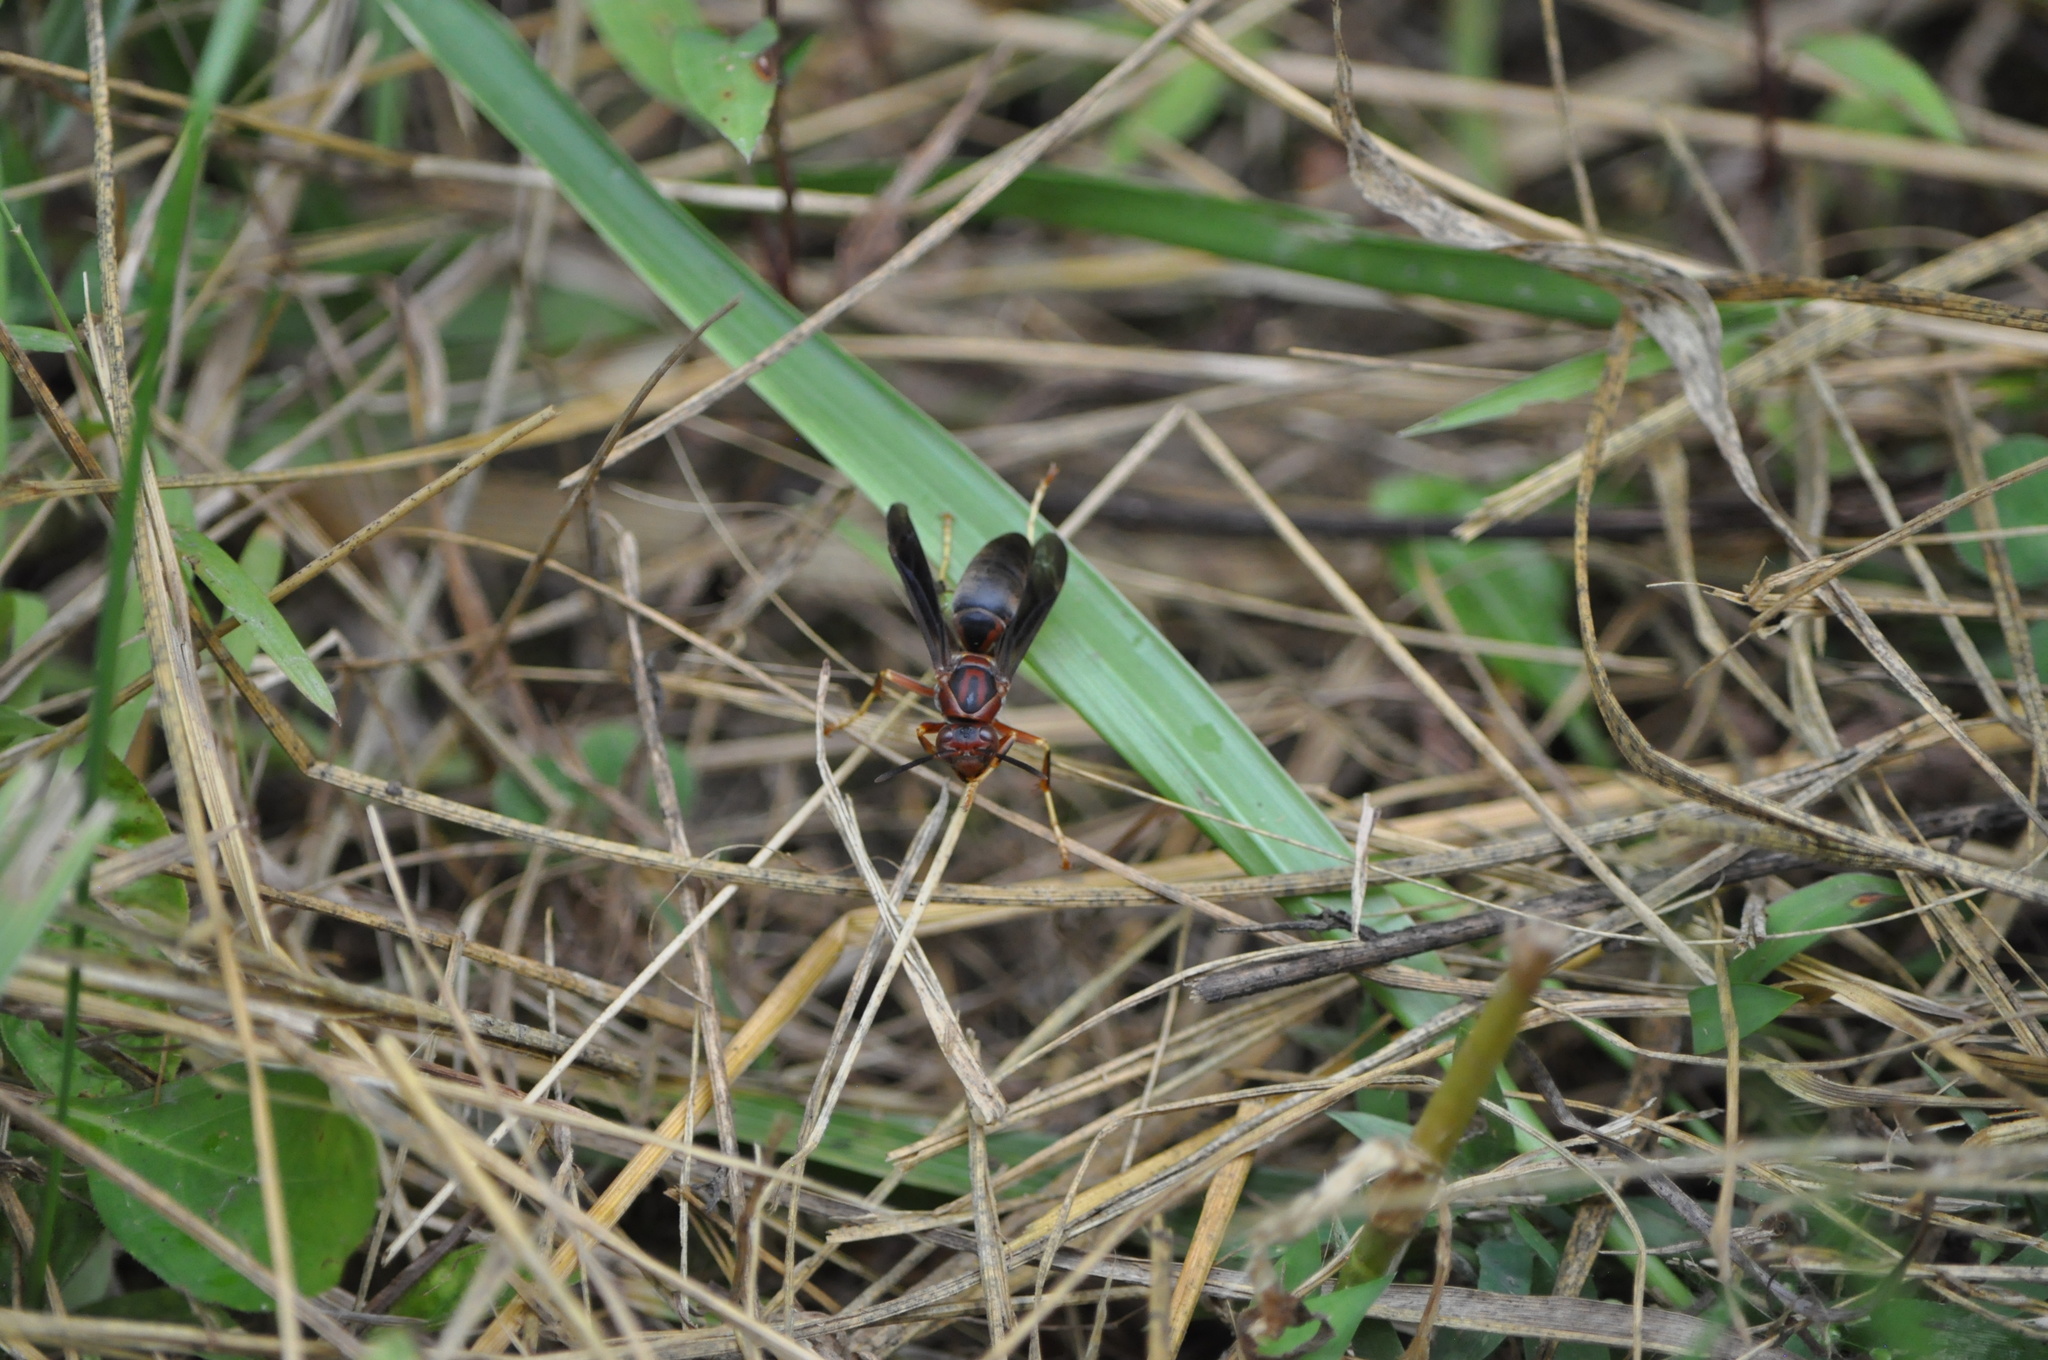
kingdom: Animalia
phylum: Arthropoda
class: Insecta
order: Hymenoptera
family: Eumenidae
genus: Polistes
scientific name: Polistes metricus
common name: Metric paper wasp
